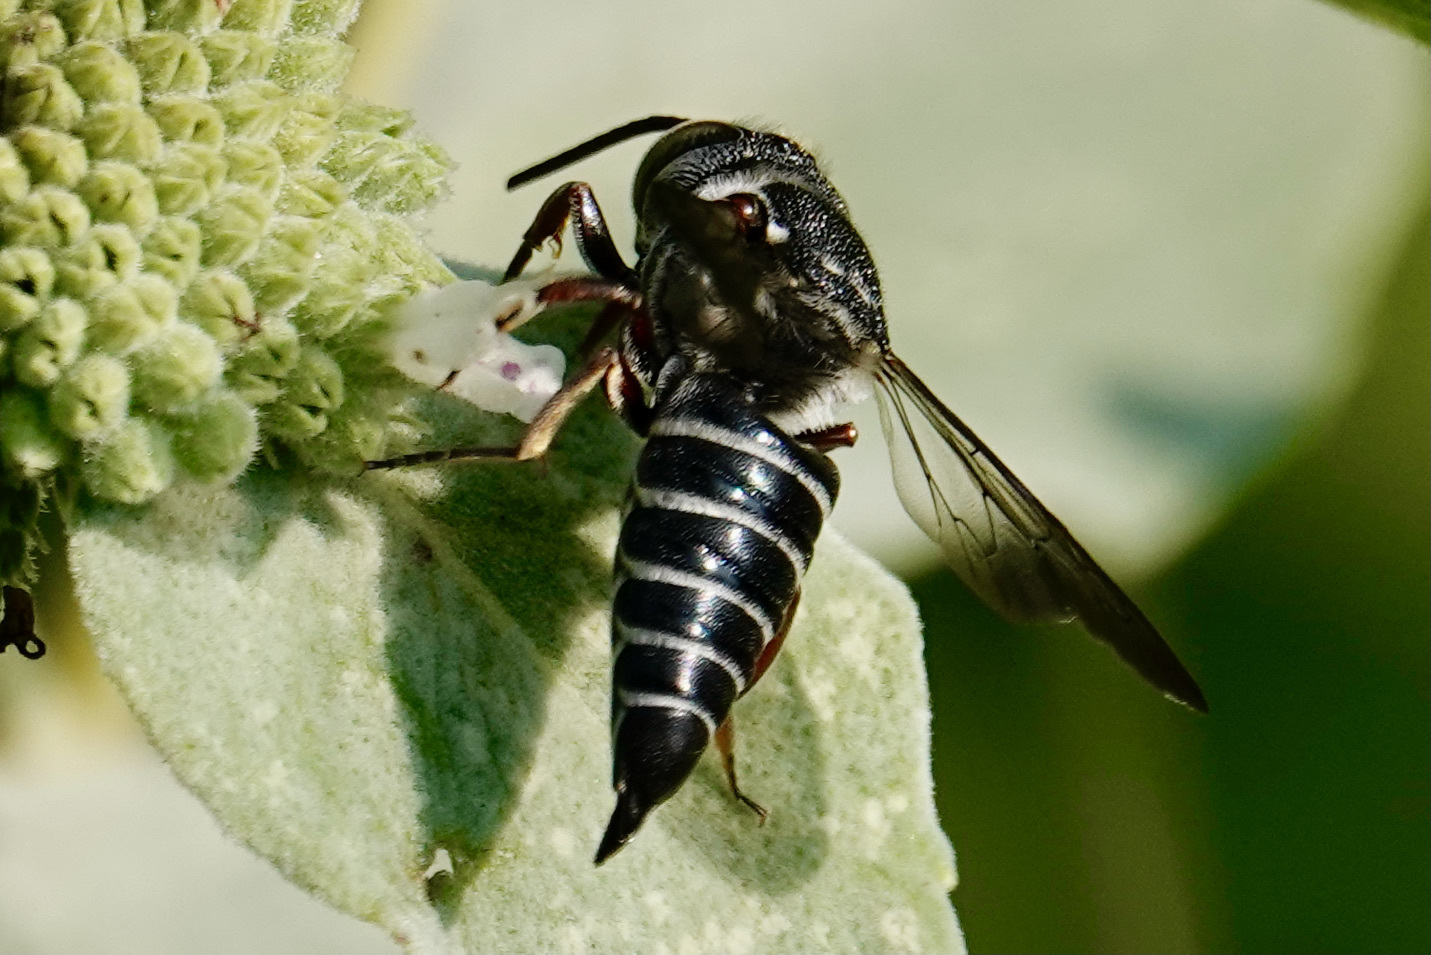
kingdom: Animalia
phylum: Arthropoda
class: Insecta
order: Hymenoptera
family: Megachilidae
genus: Coelioxys
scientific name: Coelioxys sayi
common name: Say's cuckoo leaf-cutter bee
